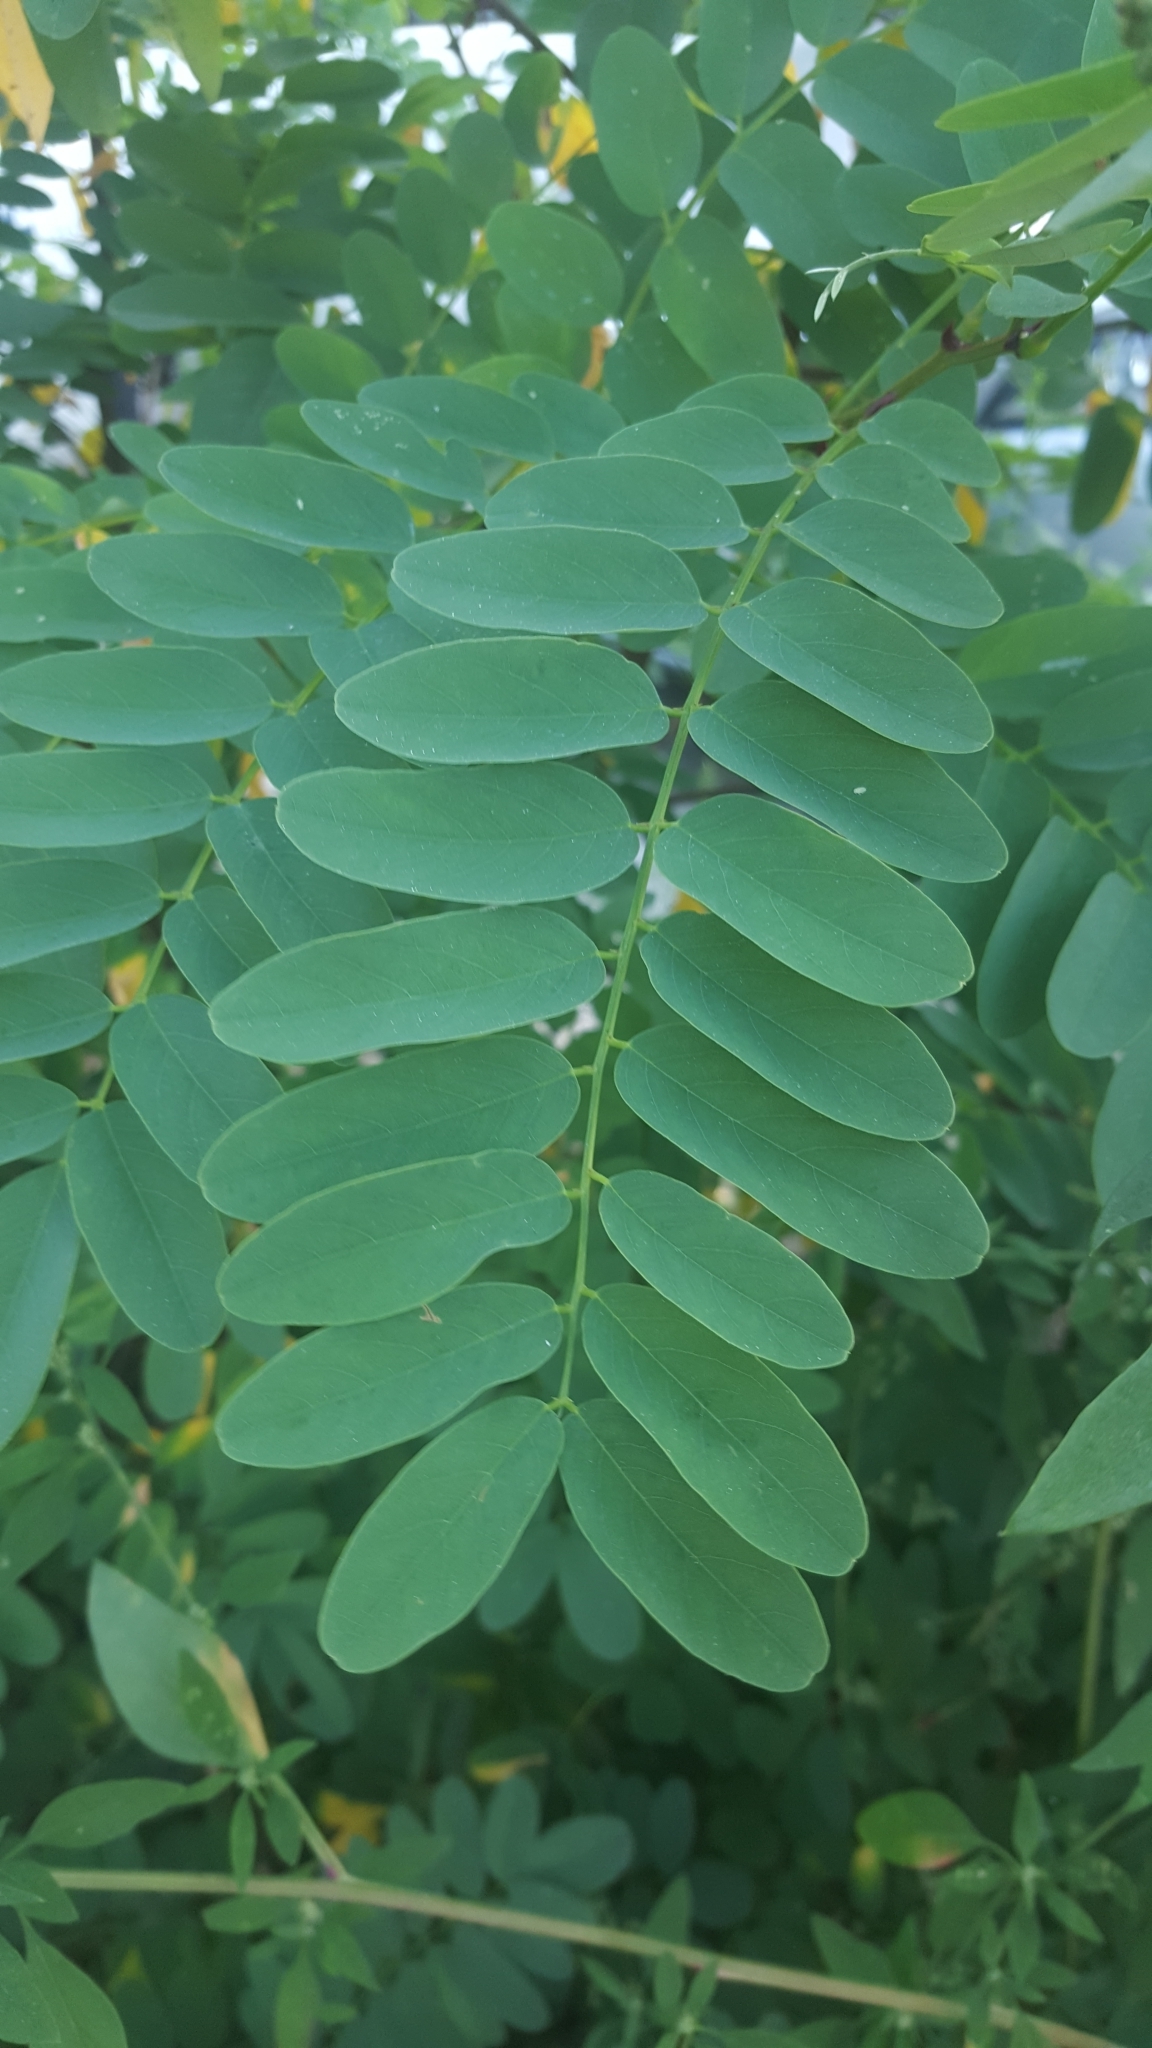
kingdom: Plantae
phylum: Tracheophyta
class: Magnoliopsida
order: Fabales
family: Fabaceae
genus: Robinia
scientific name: Robinia pseudoacacia
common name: Black locust
